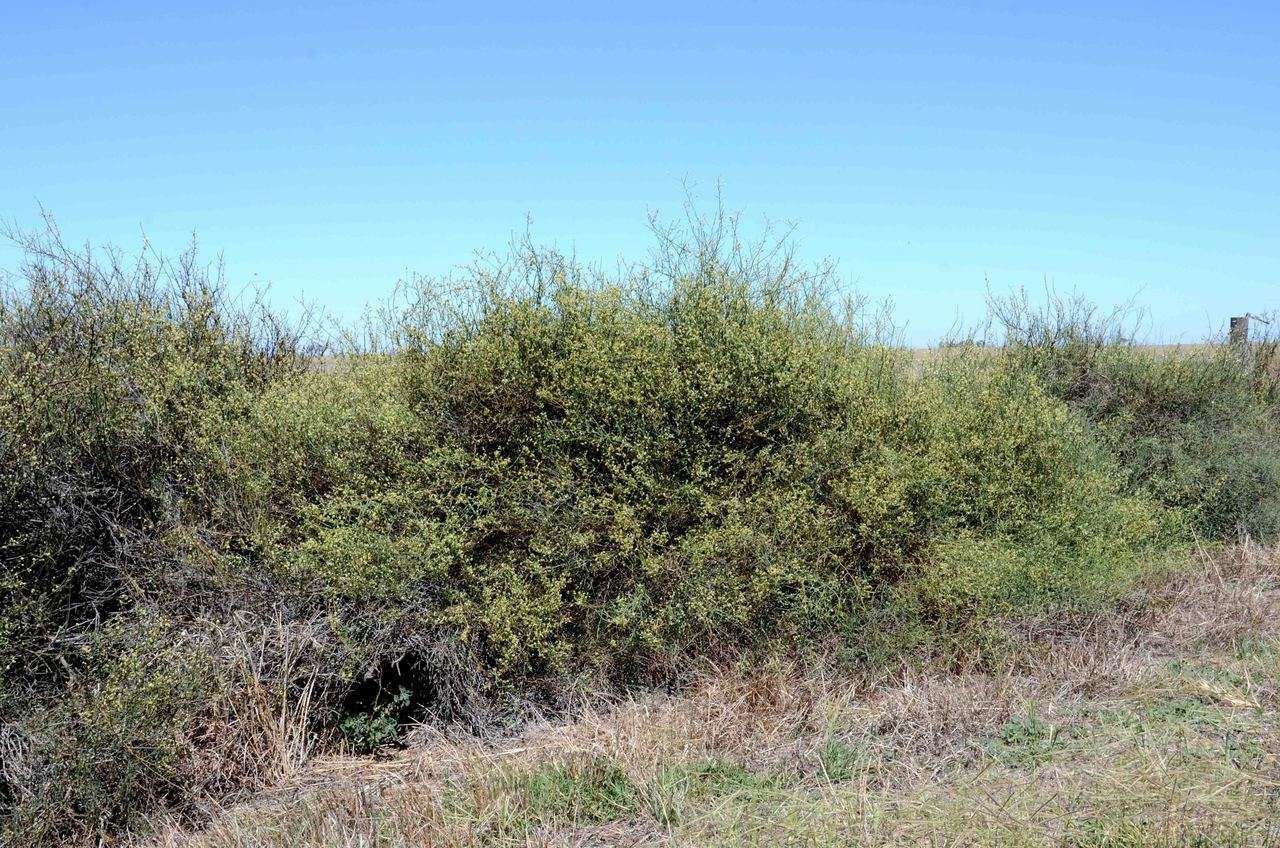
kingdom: Plantae
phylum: Tracheophyta
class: Magnoliopsida
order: Caryophyllales
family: Polygonaceae
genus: Duma
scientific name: Duma florulenta
